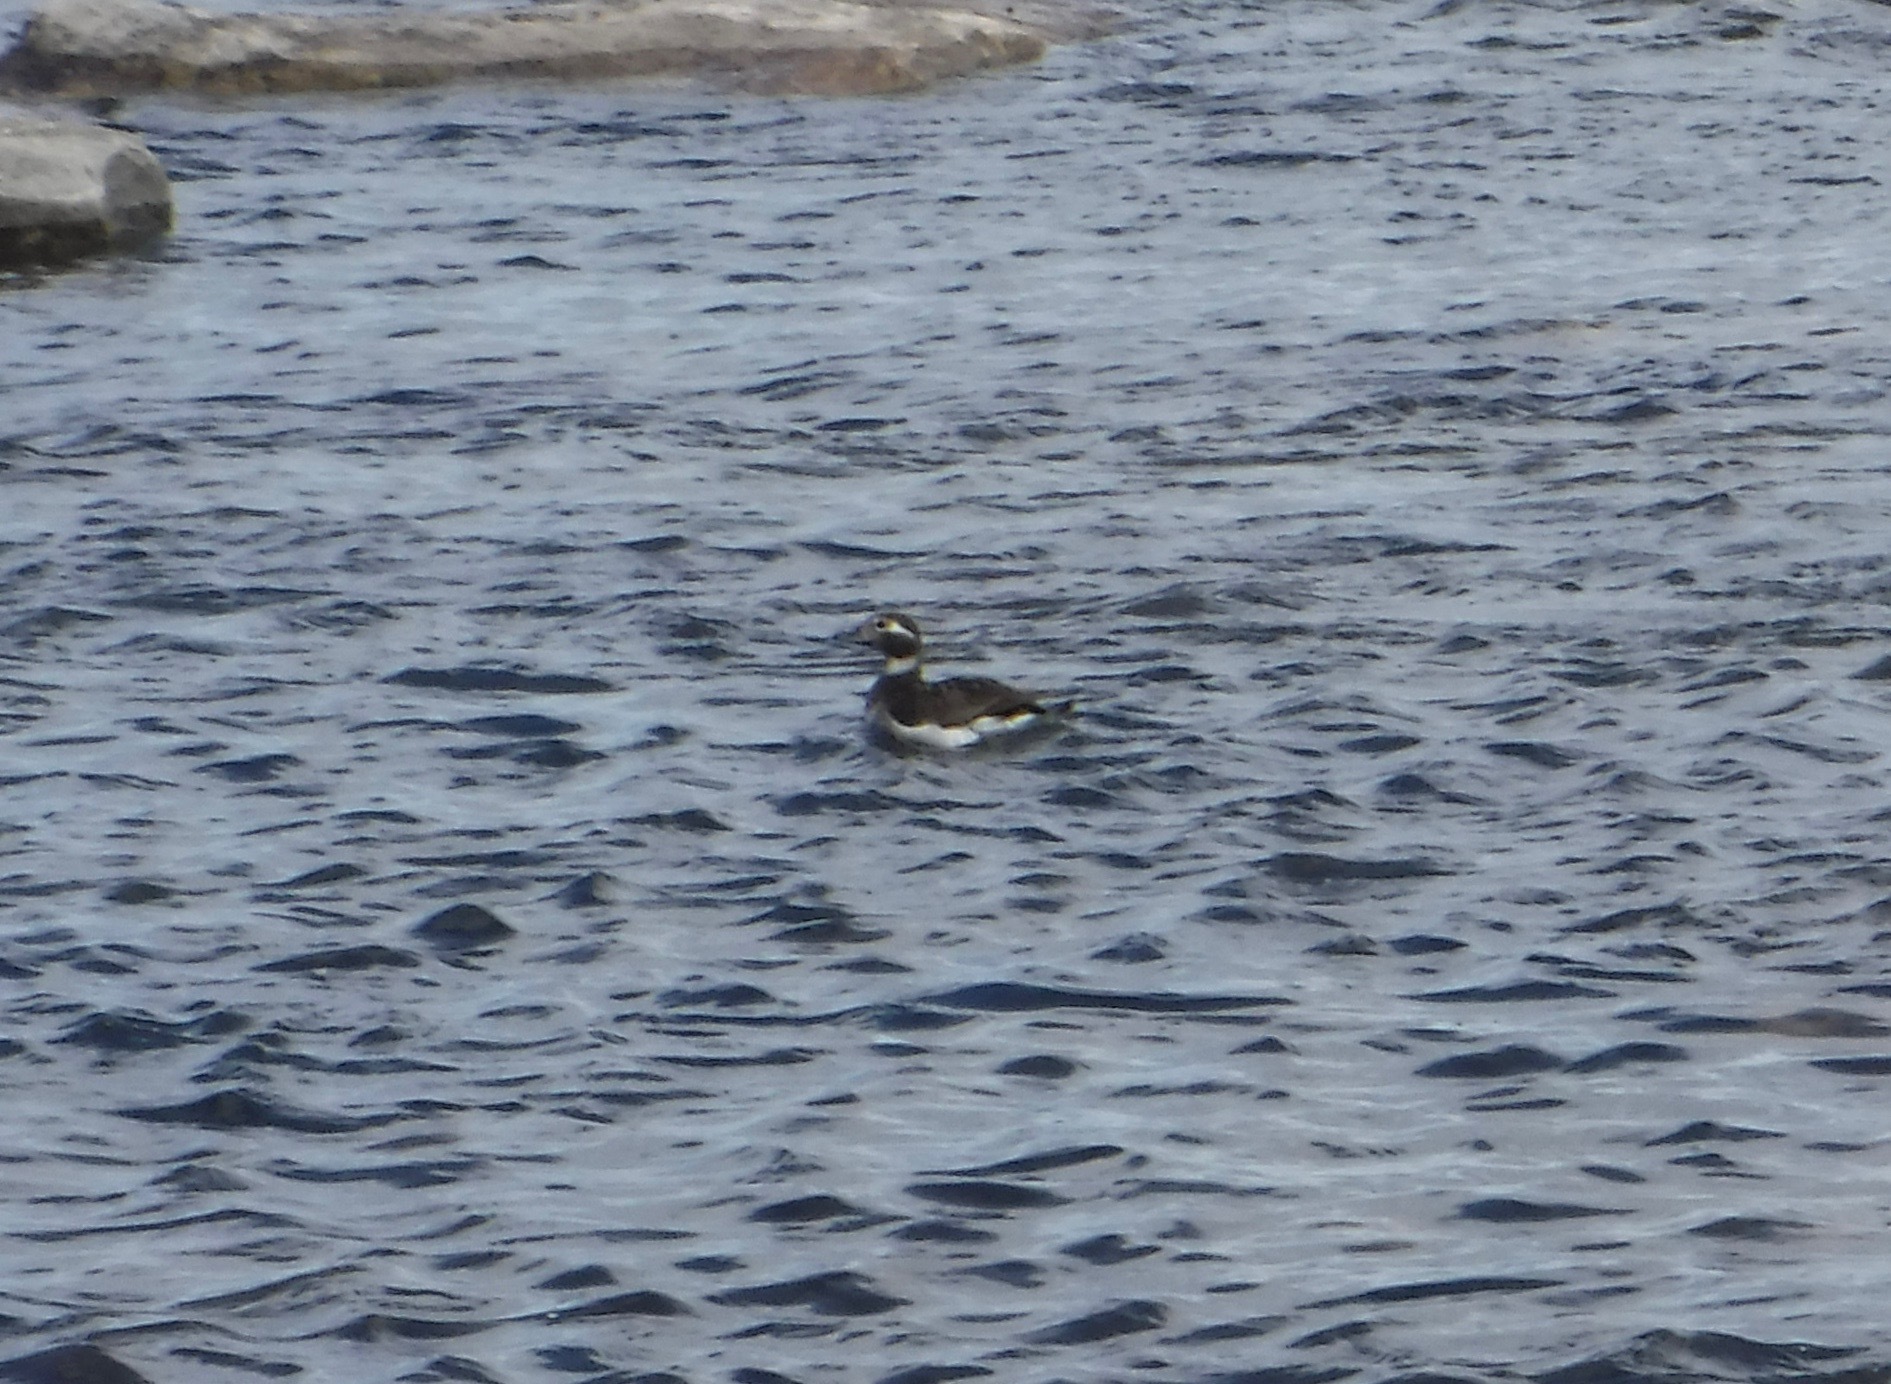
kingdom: Animalia
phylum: Chordata
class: Aves
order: Anseriformes
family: Anatidae
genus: Clangula
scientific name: Clangula hyemalis
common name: Long-tailed duck
